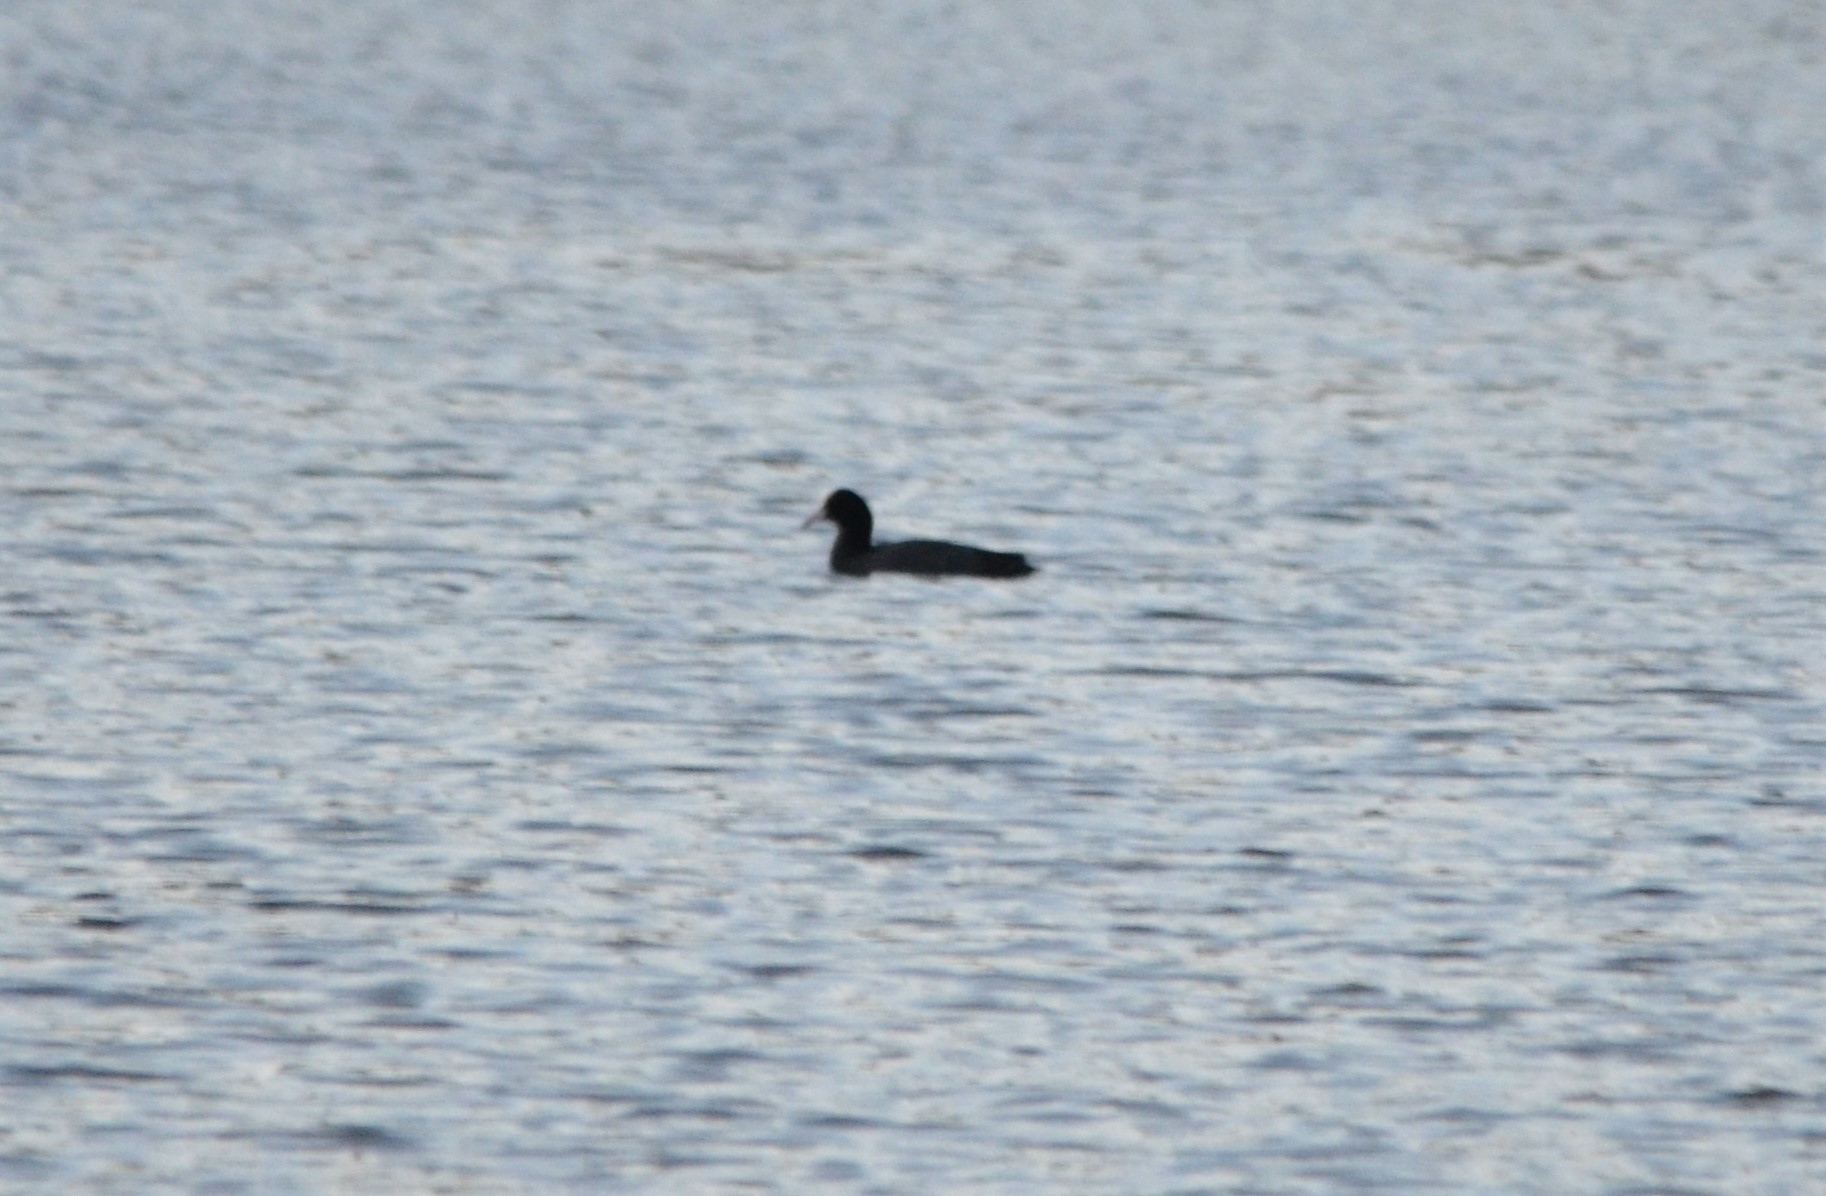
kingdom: Animalia
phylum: Chordata
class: Aves
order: Gruiformes
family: Rallidae
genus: Fulica
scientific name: Fulica atra
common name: Eurasian coot
